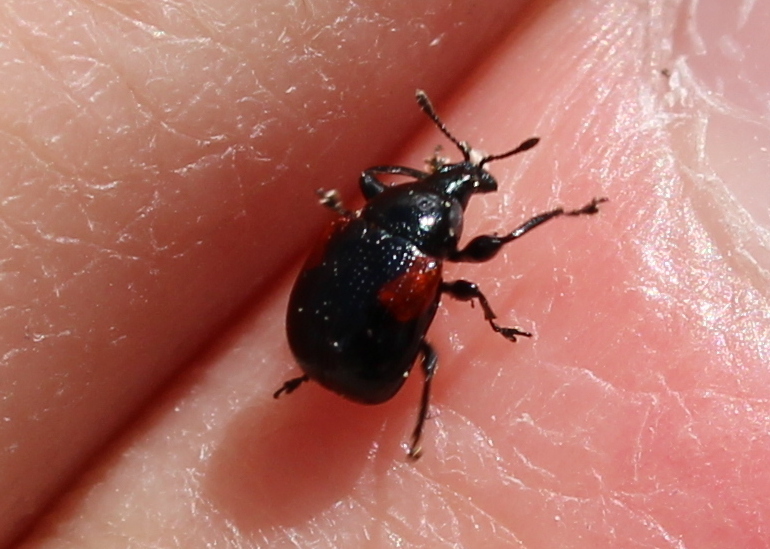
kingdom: Animalia
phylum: Arthropoda
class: Insecta
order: Coleoptera
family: Attelabidae
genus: Attelabus
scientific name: Attelabus bipustulatus
